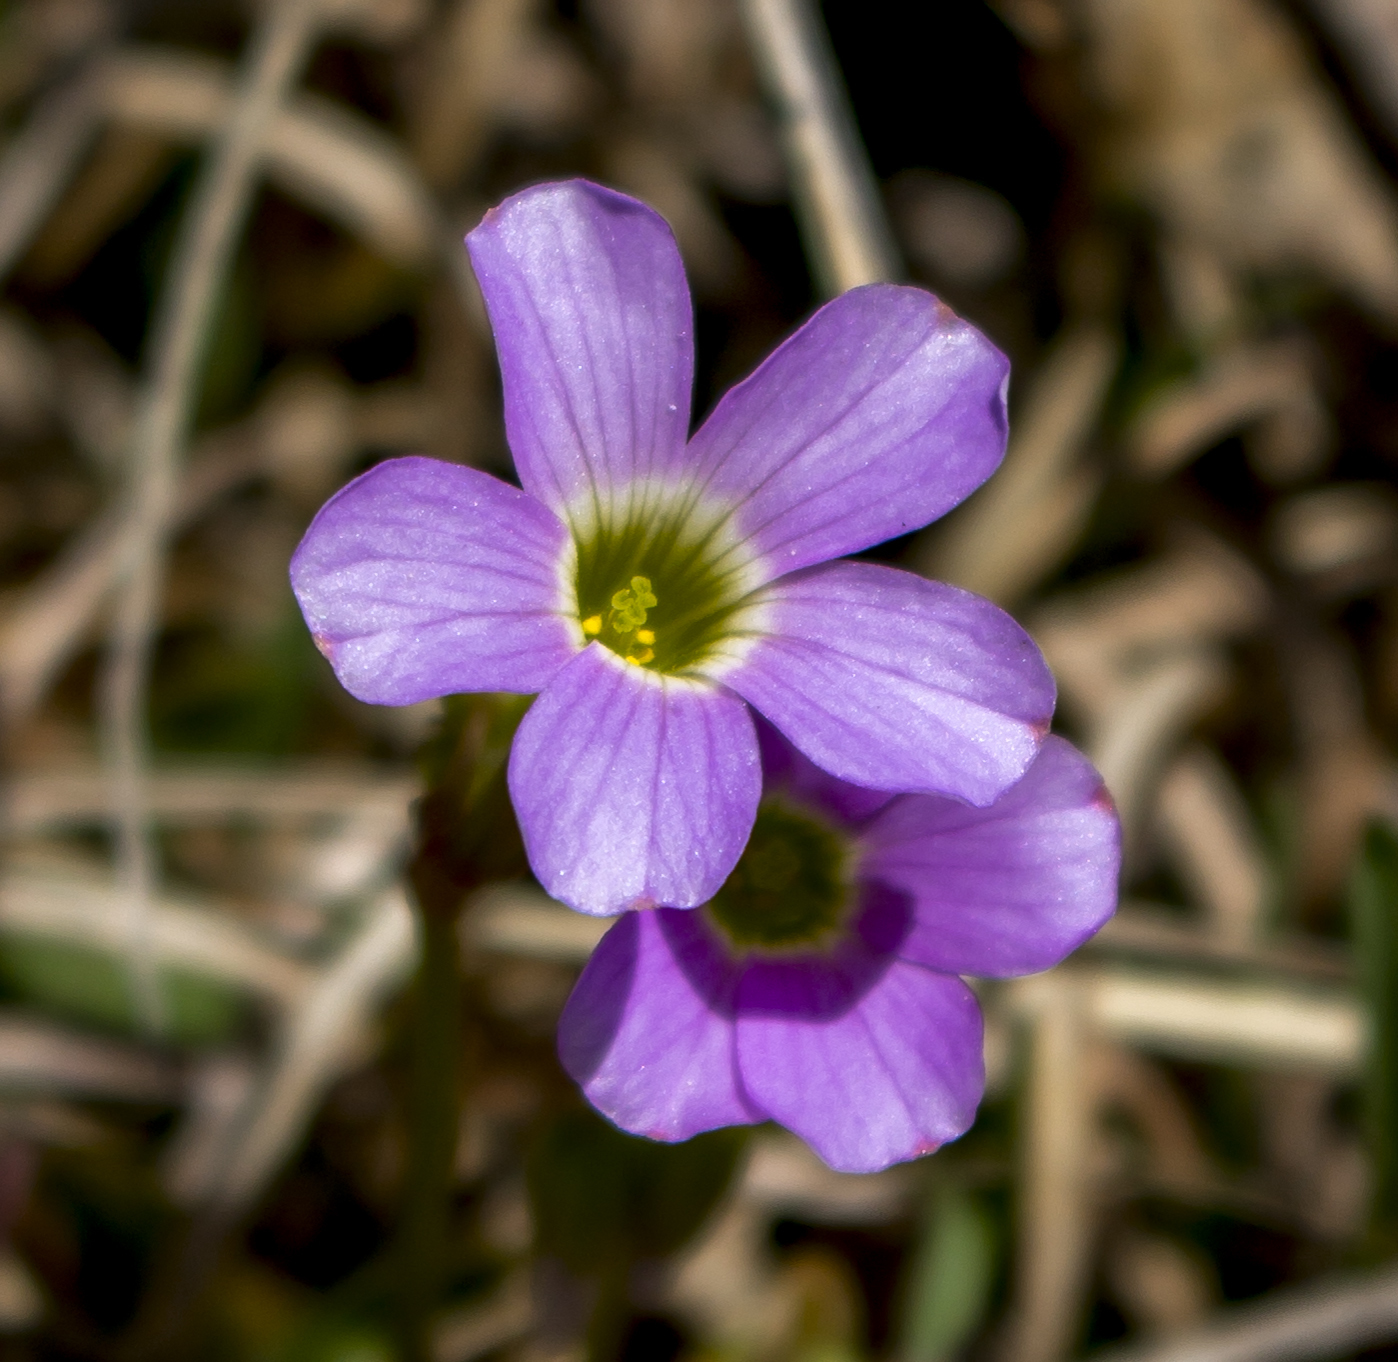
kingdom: Plantae
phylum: Tracheophyta
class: Magnoliopsida
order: Oxalidales
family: Oxalidaceae
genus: Oxalis
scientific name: Oxalis violacea
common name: Violet wood-sorrel
